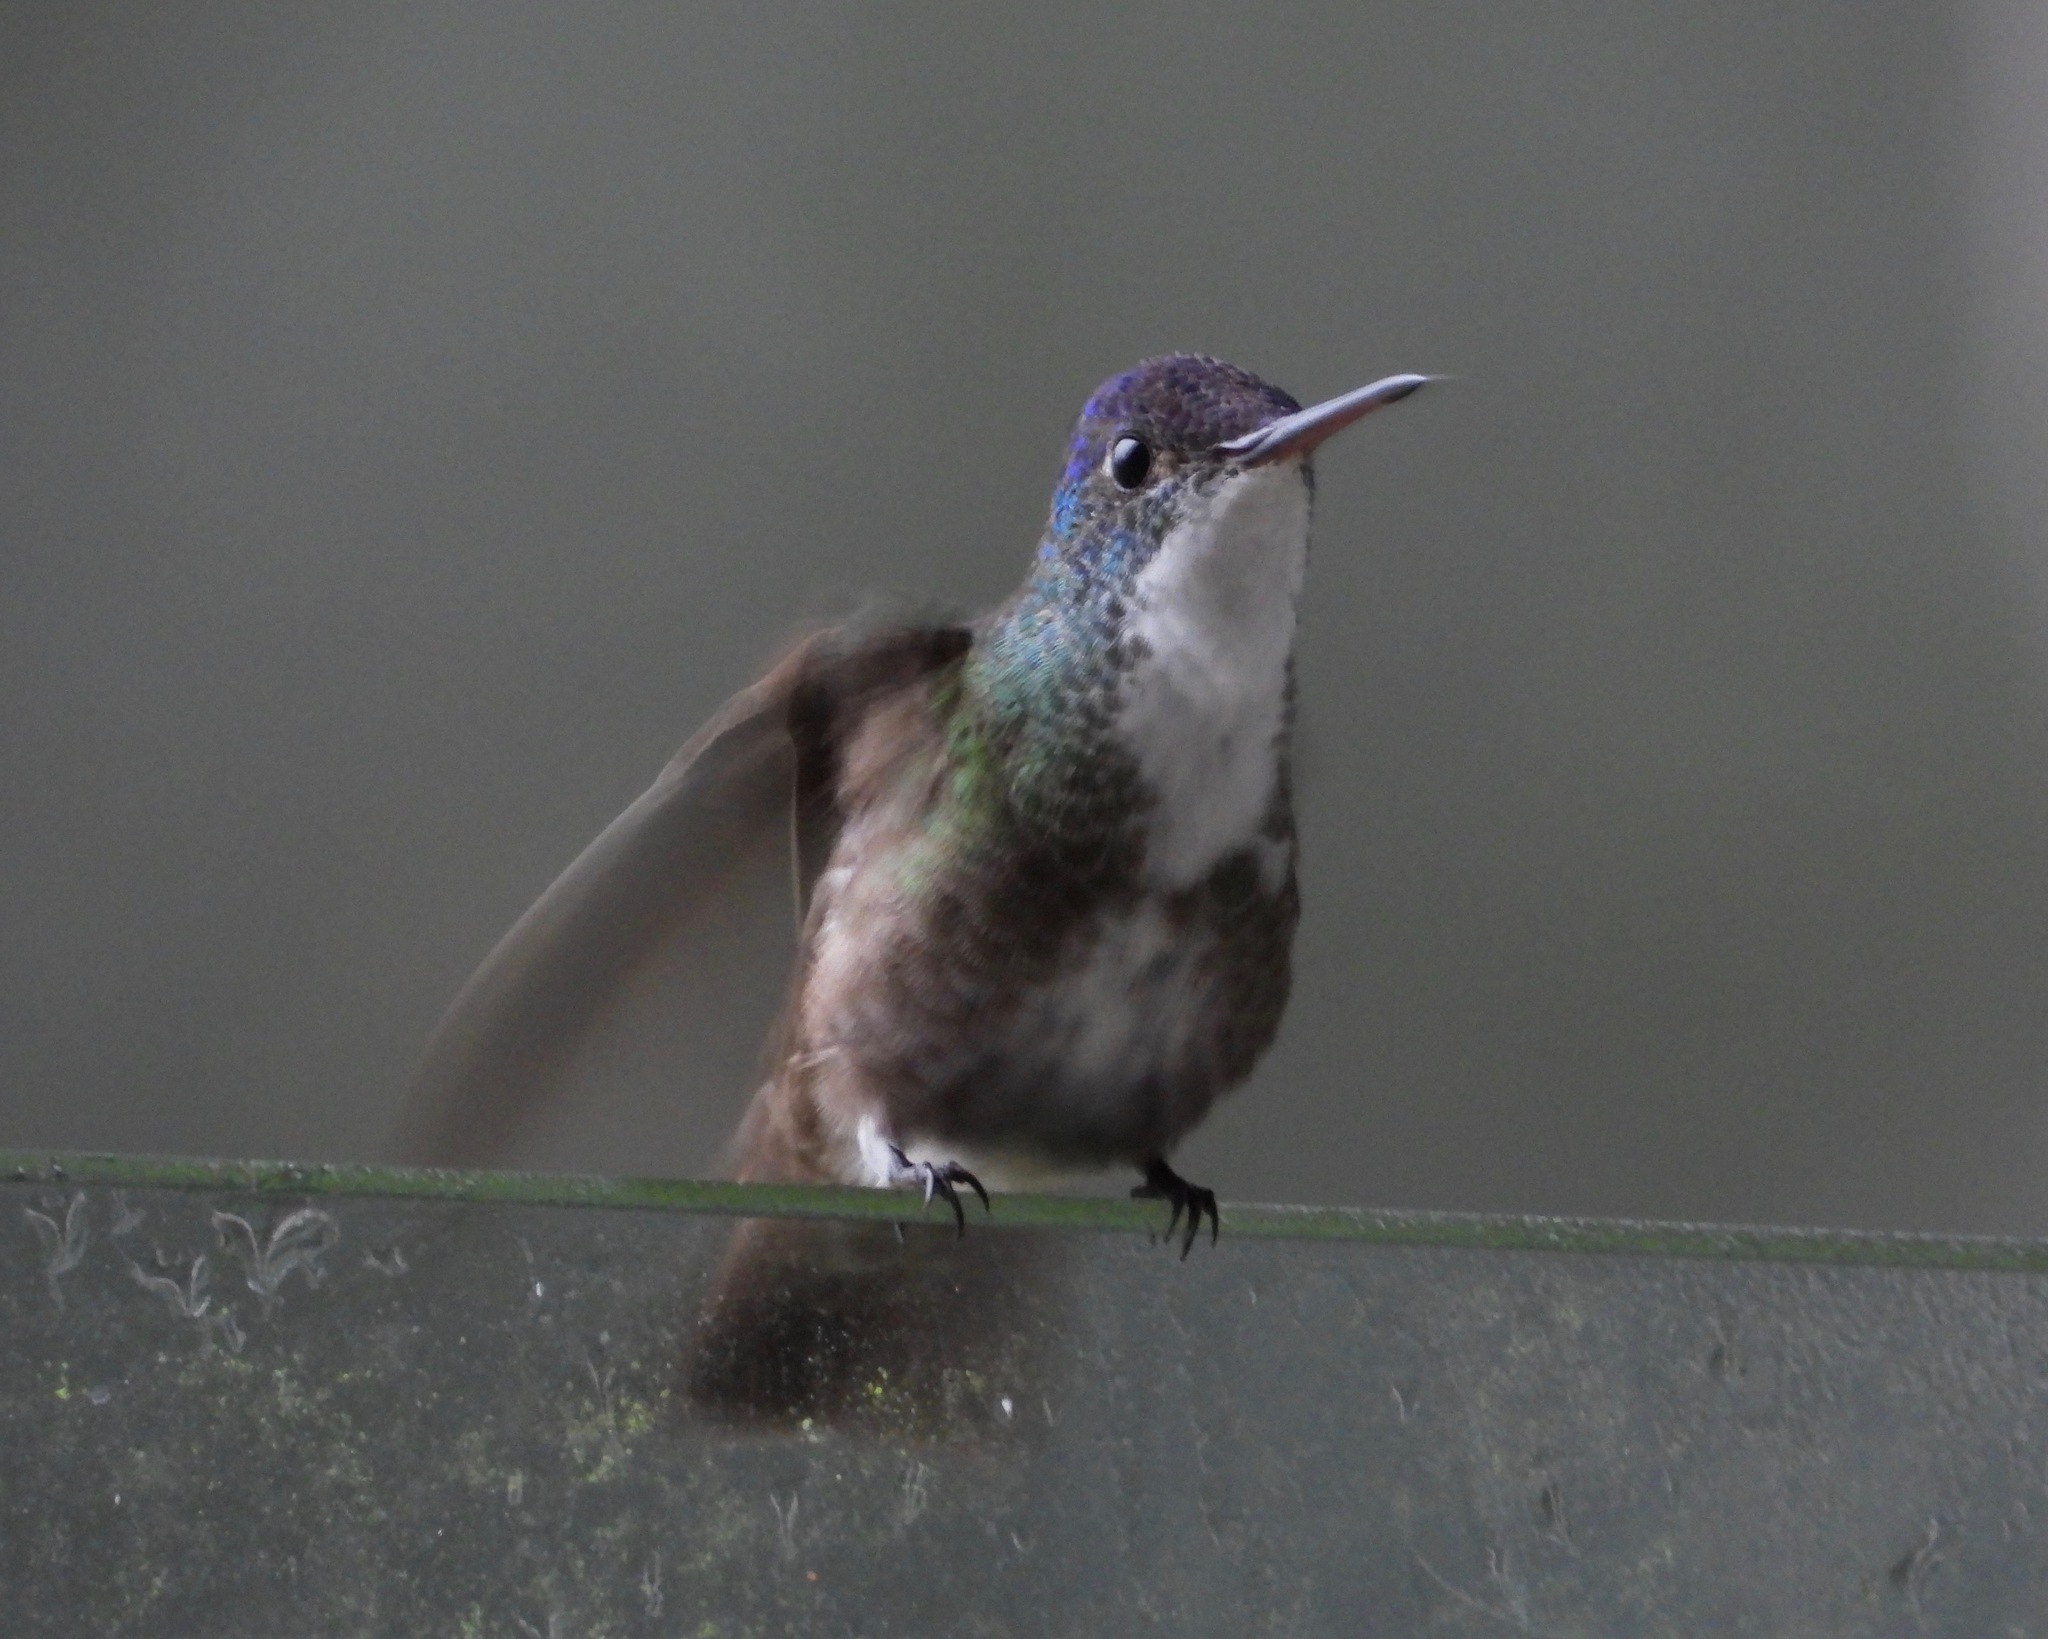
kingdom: Animalia
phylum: Chordata
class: Aves
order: Apodiformes
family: Trochilidae
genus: Saucerottia
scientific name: Saucerottia cyanocephala
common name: Azure-crowned hummingbird
